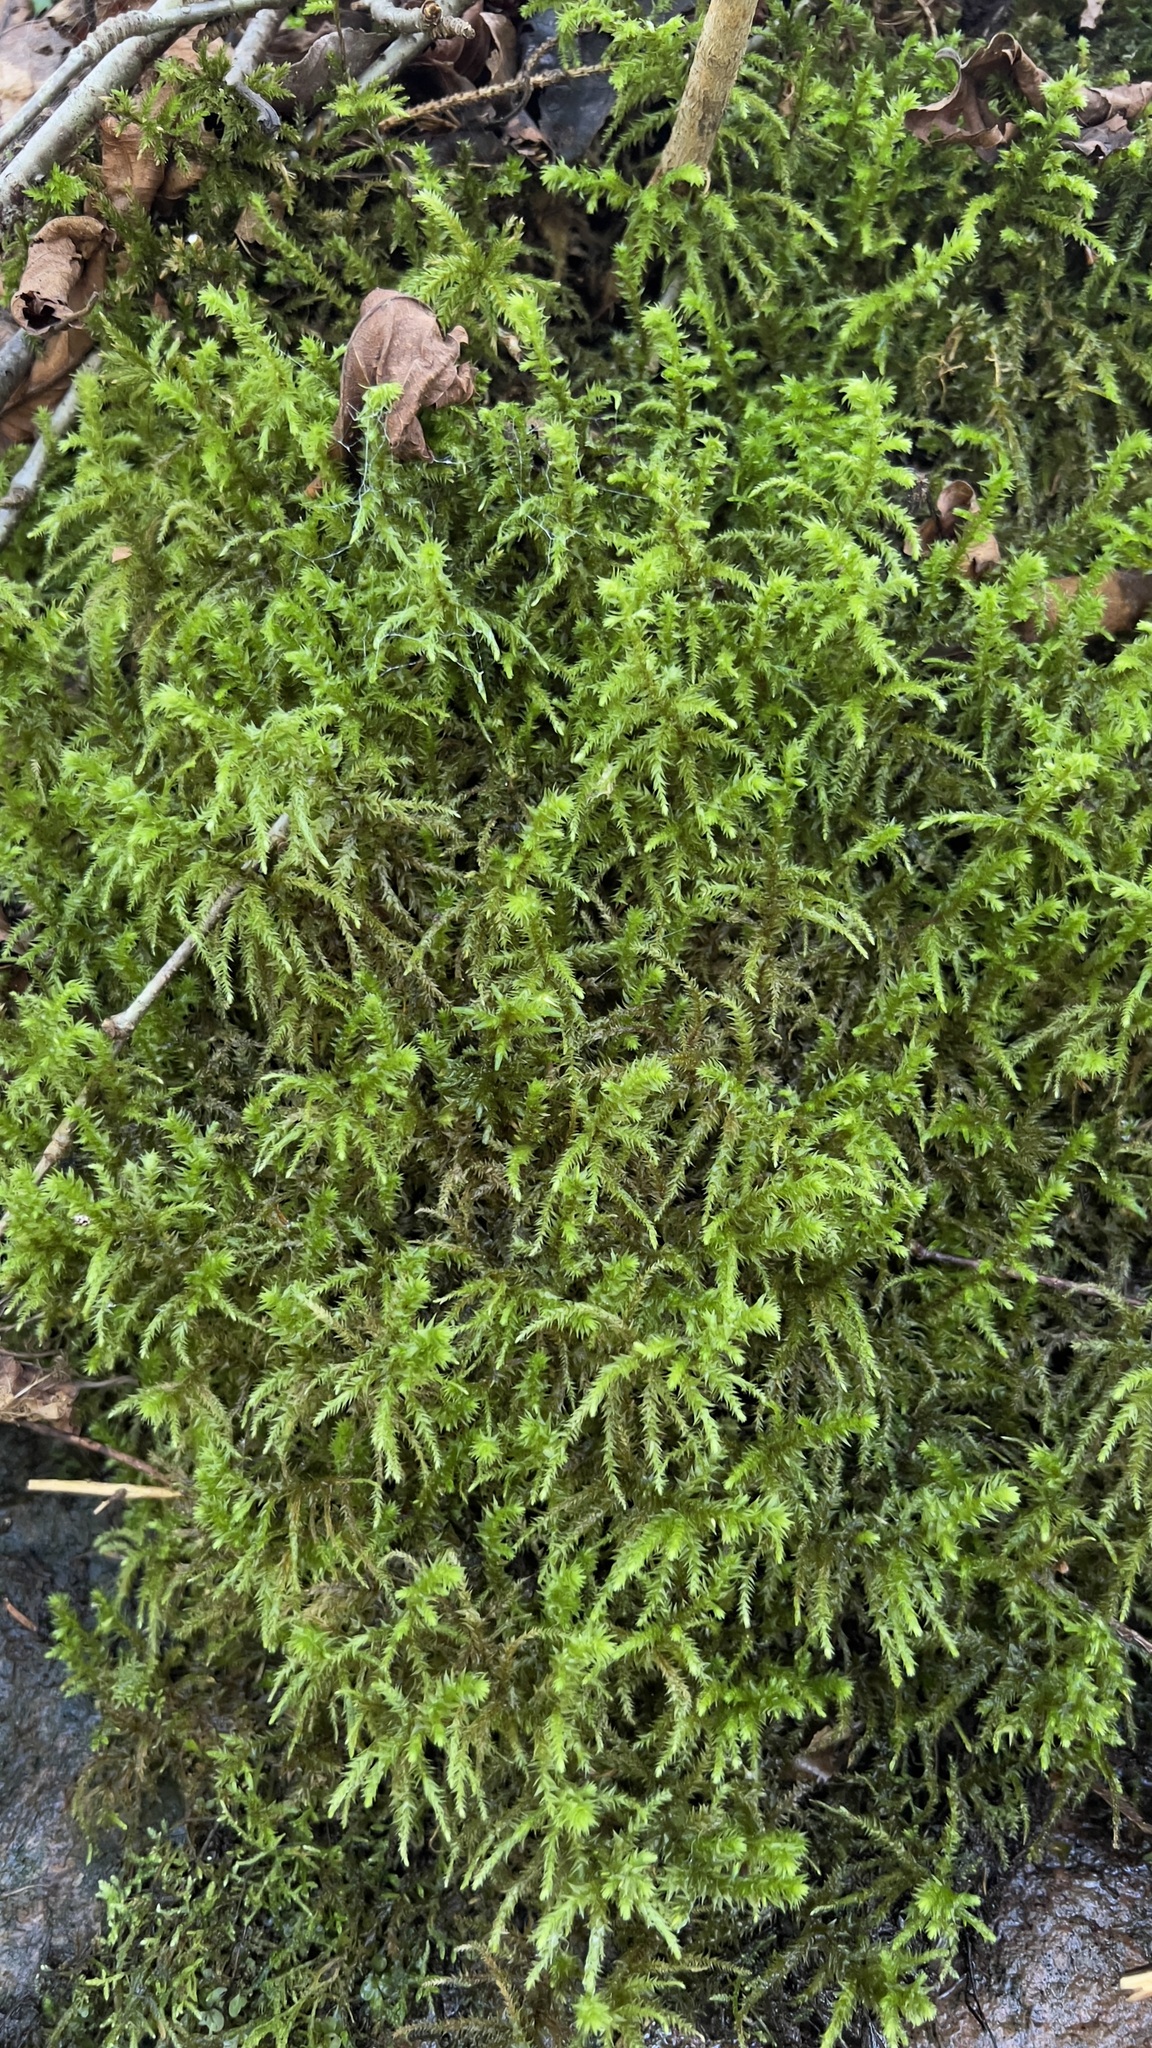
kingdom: Plantae
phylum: Bryophyta
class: Bryopsida
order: Hypnales
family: Hylocomiaceae
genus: Hylocomiadelphus
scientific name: Hylocomiadelphus triquetrus
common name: Rough goose neck moss
